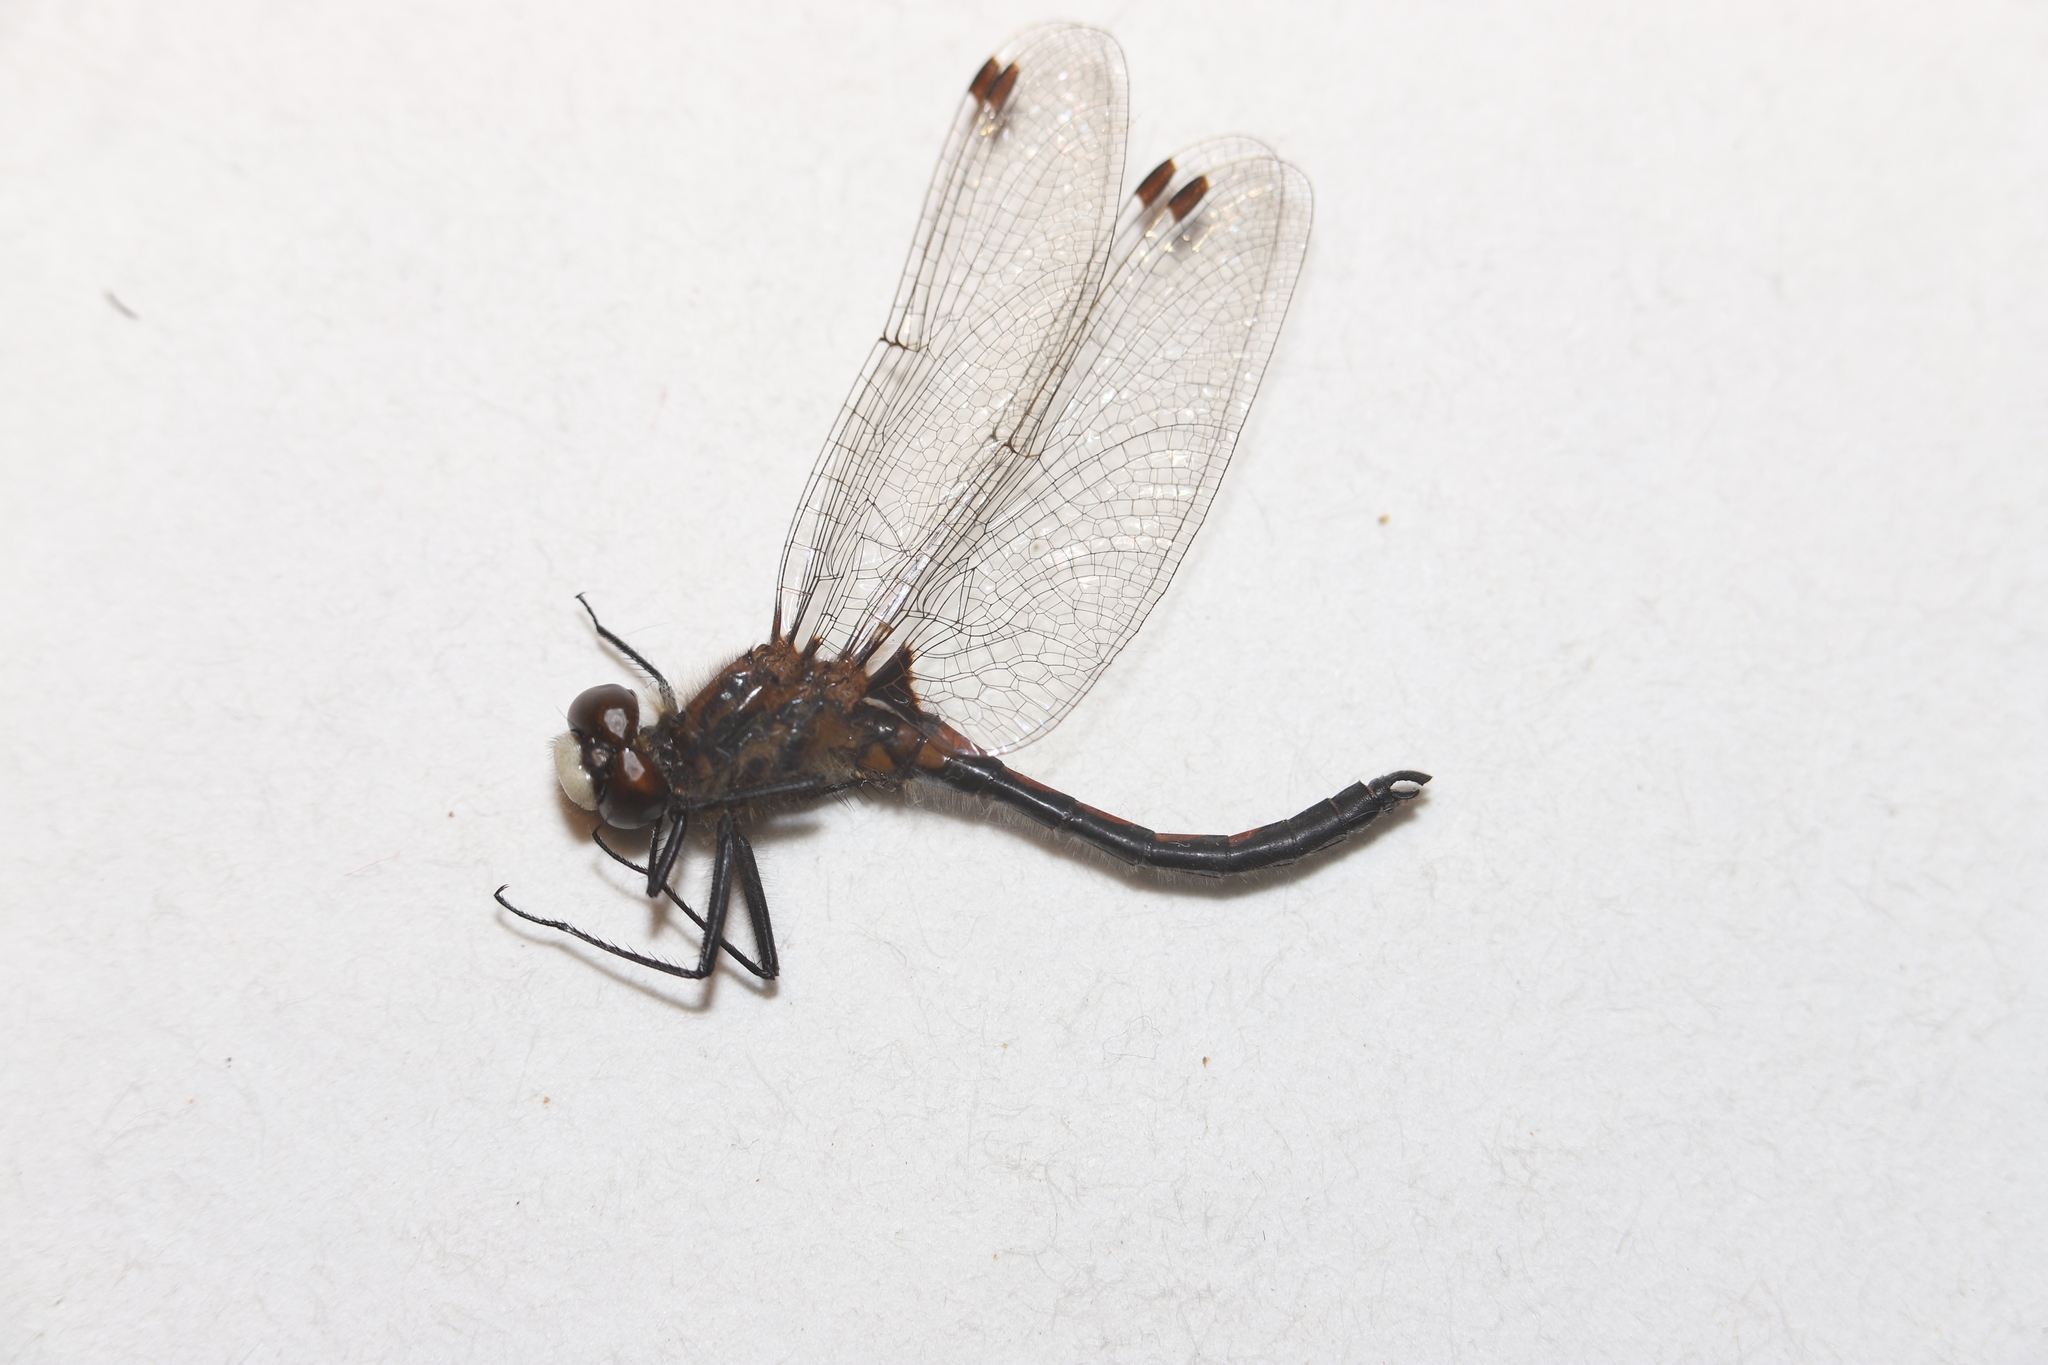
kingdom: Animalia
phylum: Arthropoda
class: Insecta
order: Odonata
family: Libellulidae
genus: Leucorrhinia
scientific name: Leucorrhinia hudsonica
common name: Hudsonian whiteface
